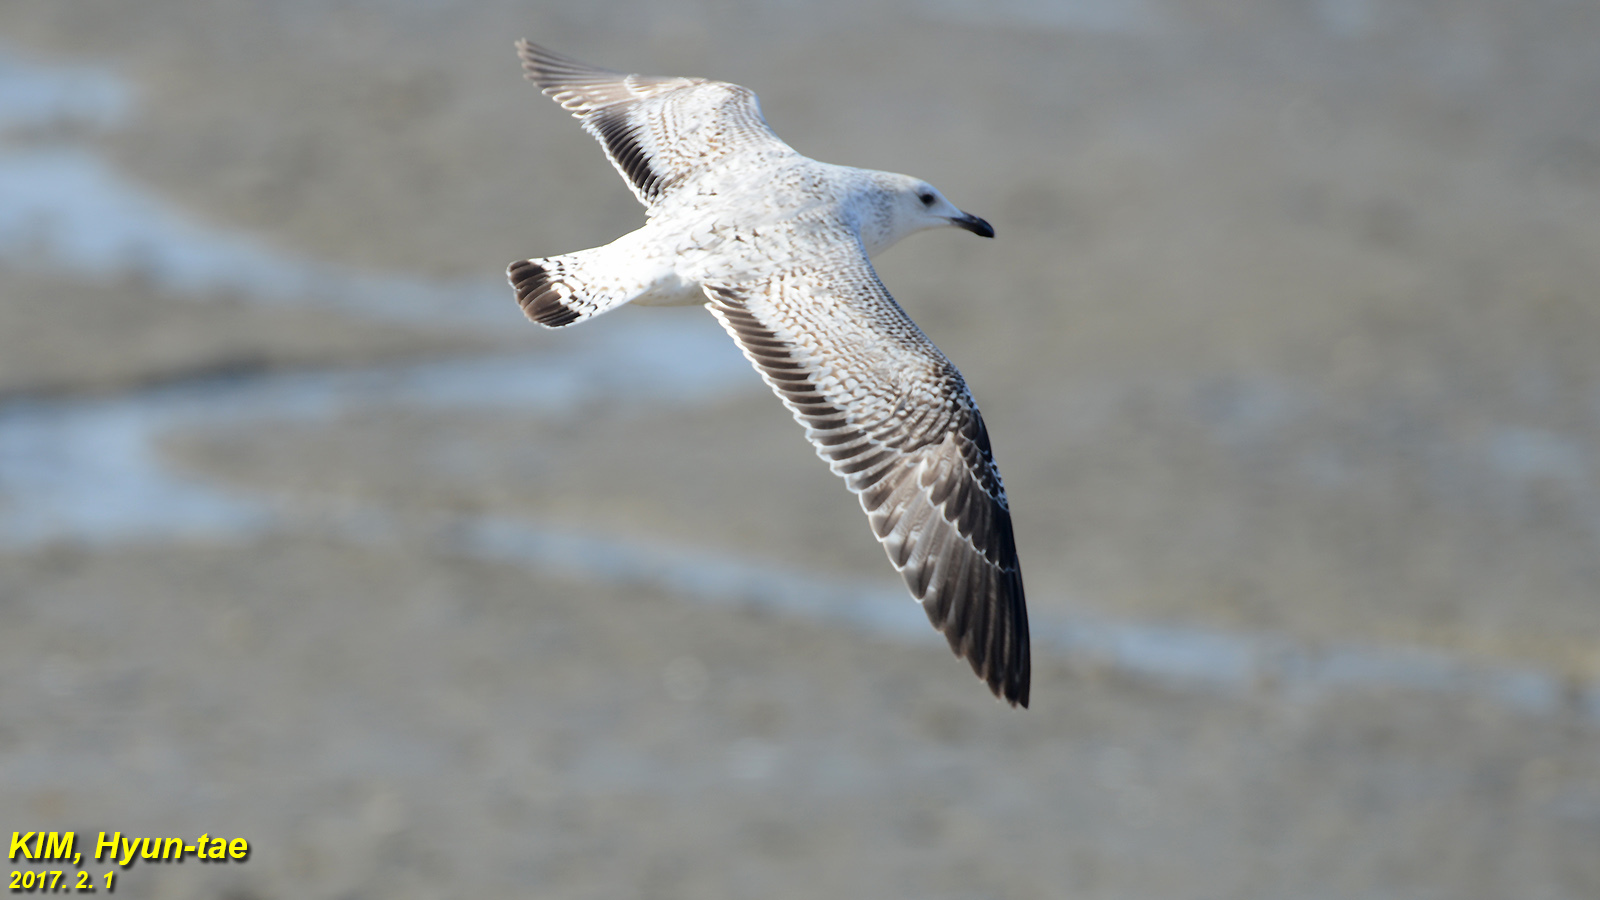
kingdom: Animalia
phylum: Chordata
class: Aves
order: Charadriiformes
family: Laridae
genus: Larus
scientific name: Larus vegae
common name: Vega gull
